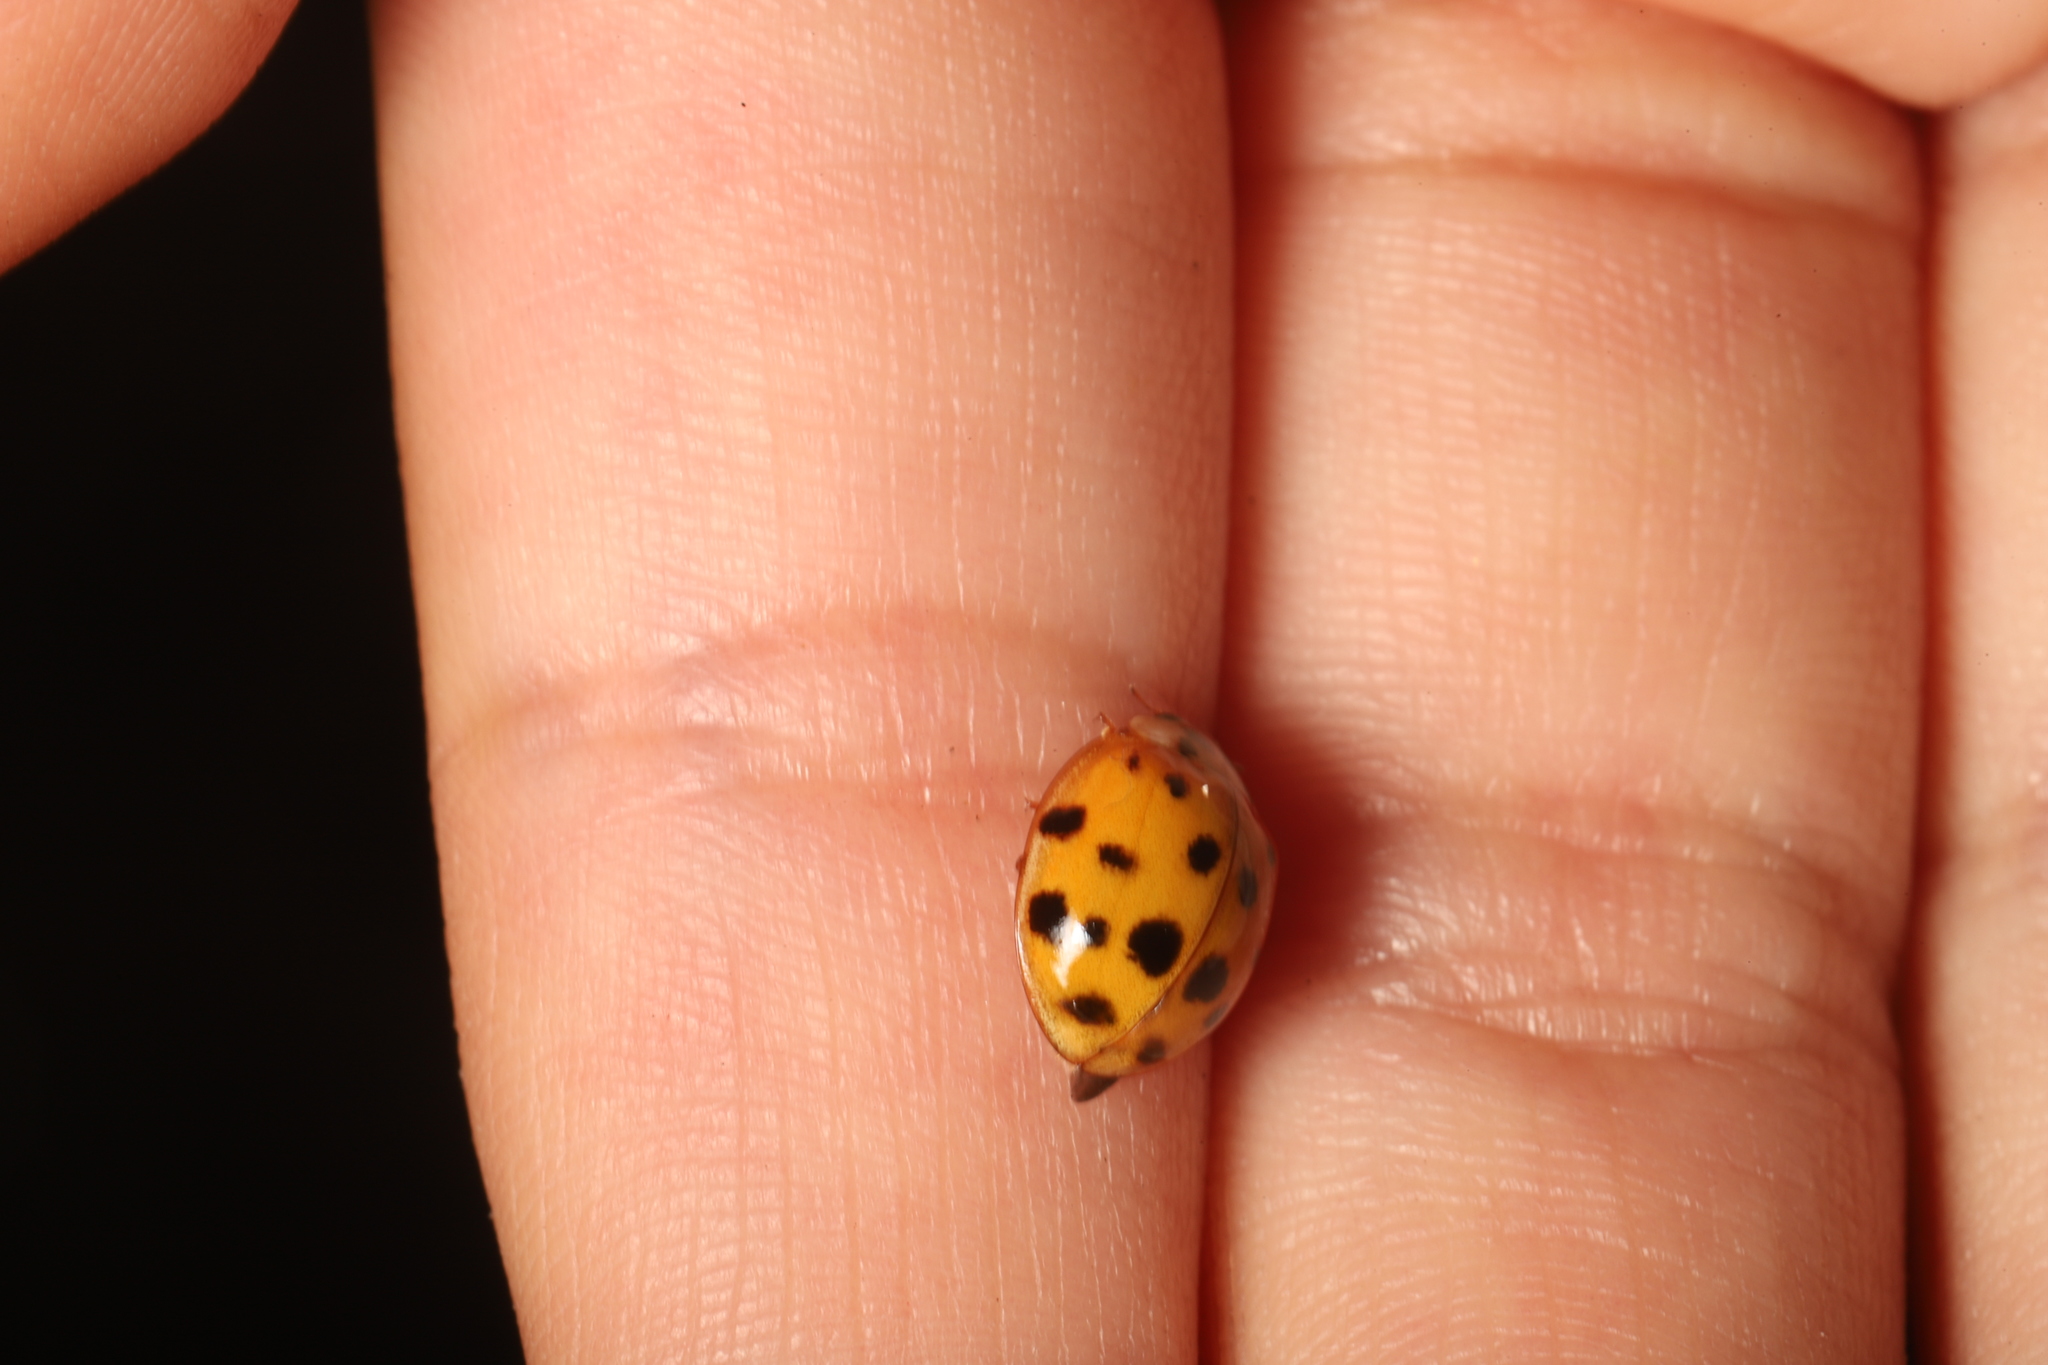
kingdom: Animalia
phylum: Arthropoda
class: Insecta
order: Coleoptera
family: Coccinellidae
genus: Harmonia
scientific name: Harmonia axyridis
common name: Harlequin ladybird
